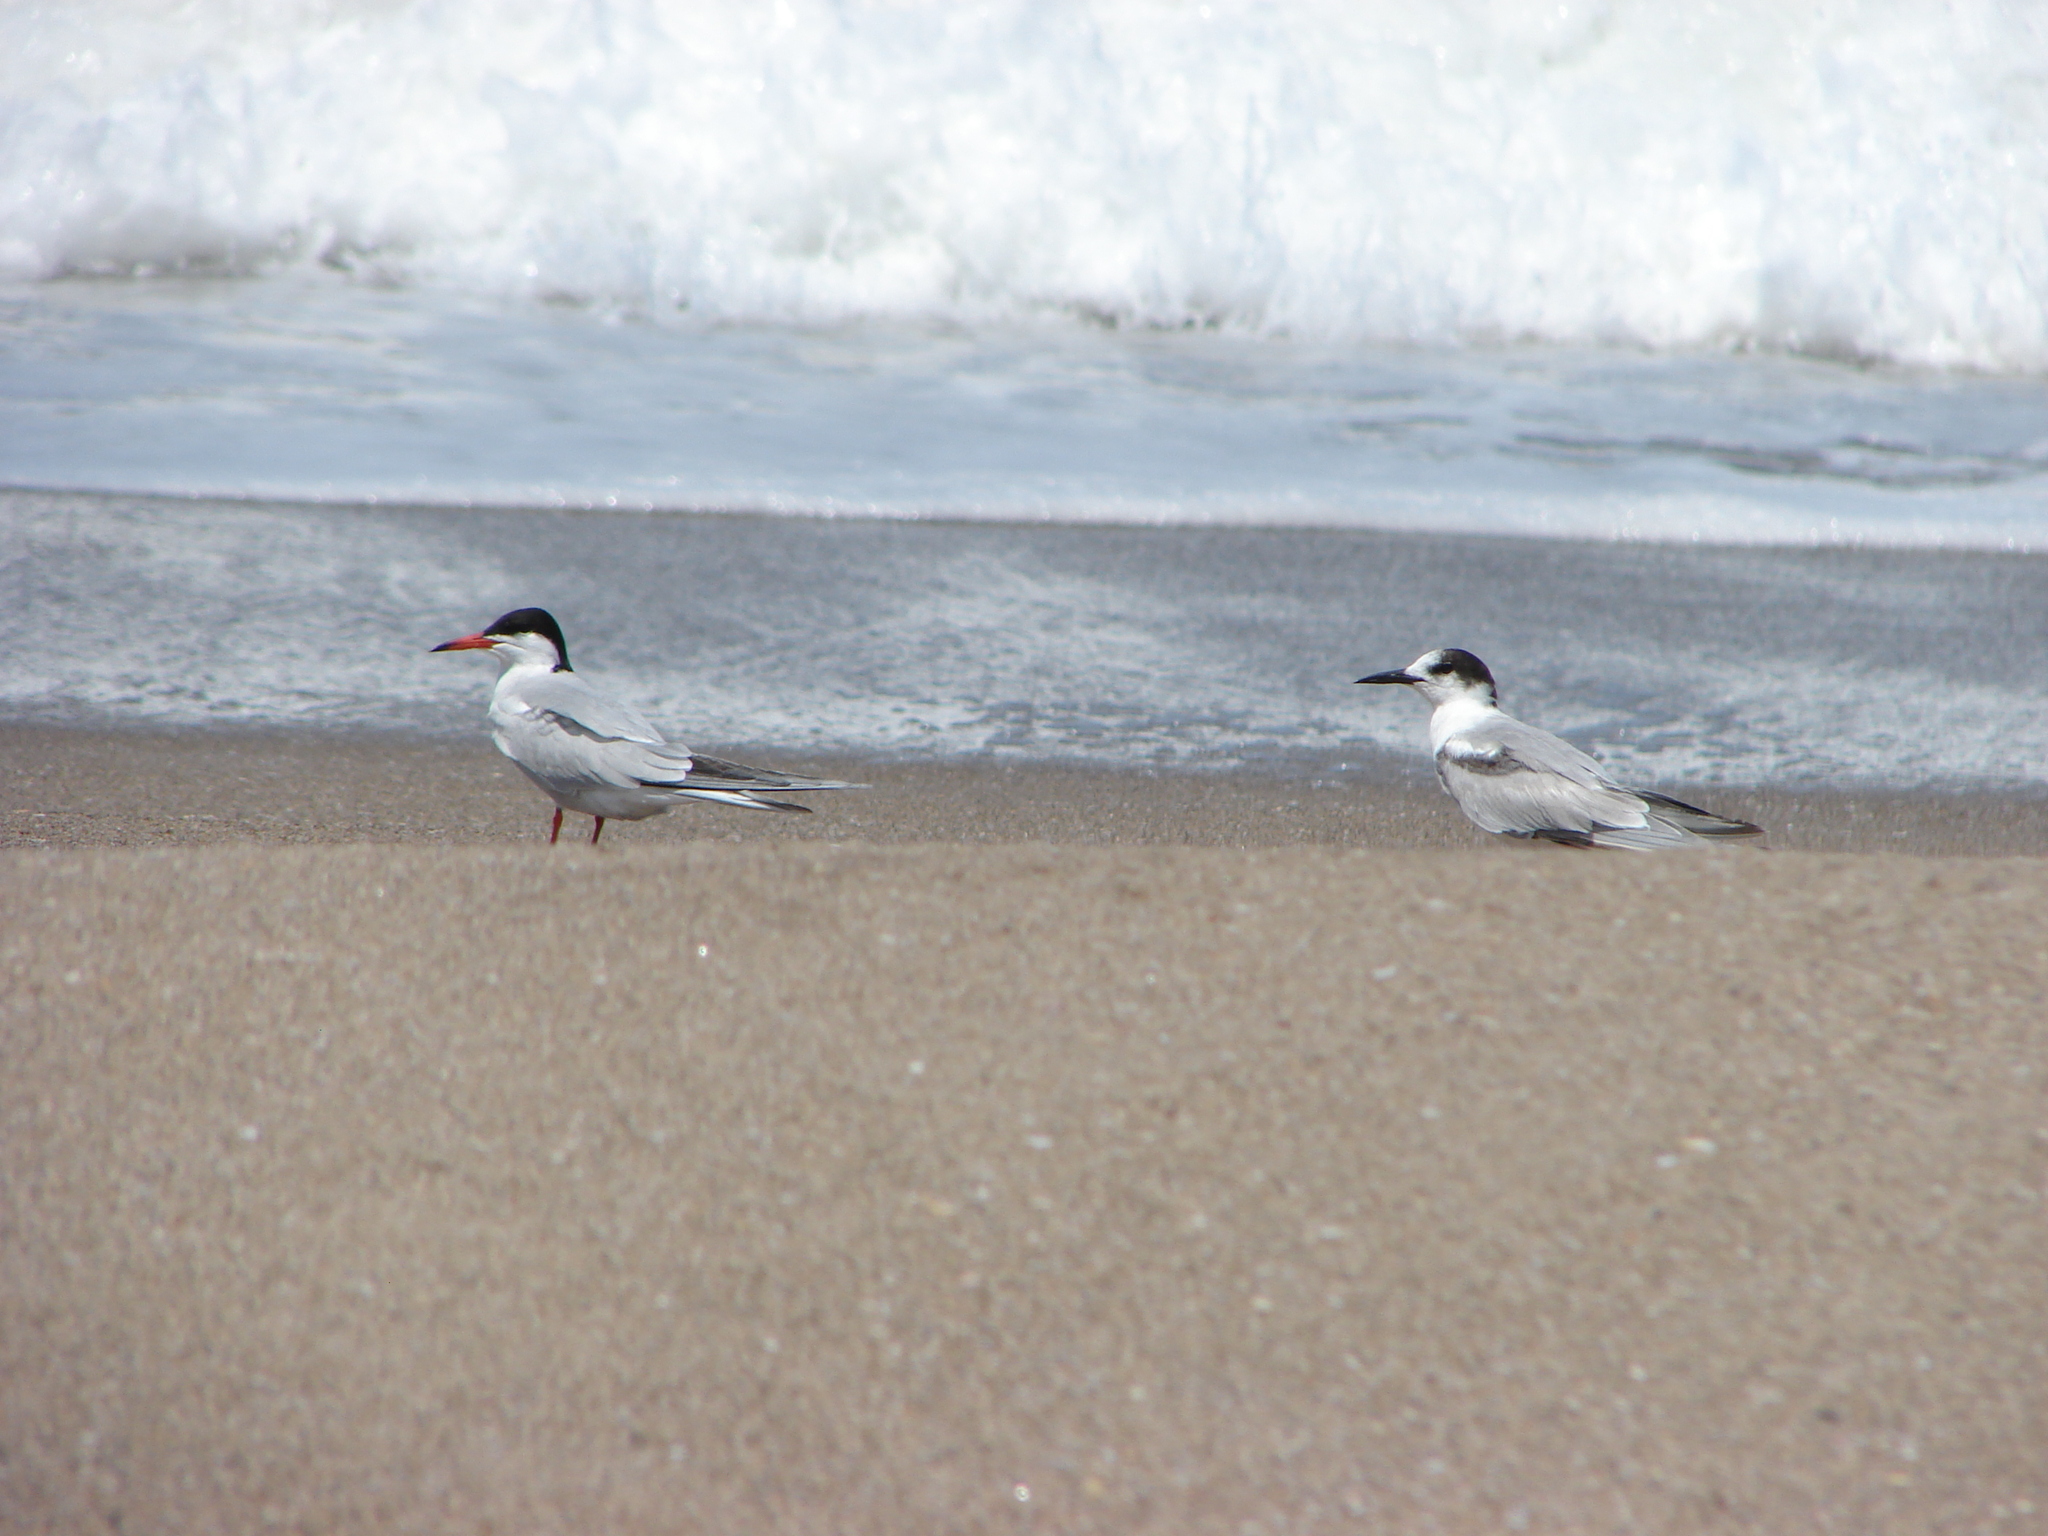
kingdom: Animalia
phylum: Chordata
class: Aves
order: Charadriiformes
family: Laridae
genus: Sterna
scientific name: Sterna hirundo
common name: Common tern
